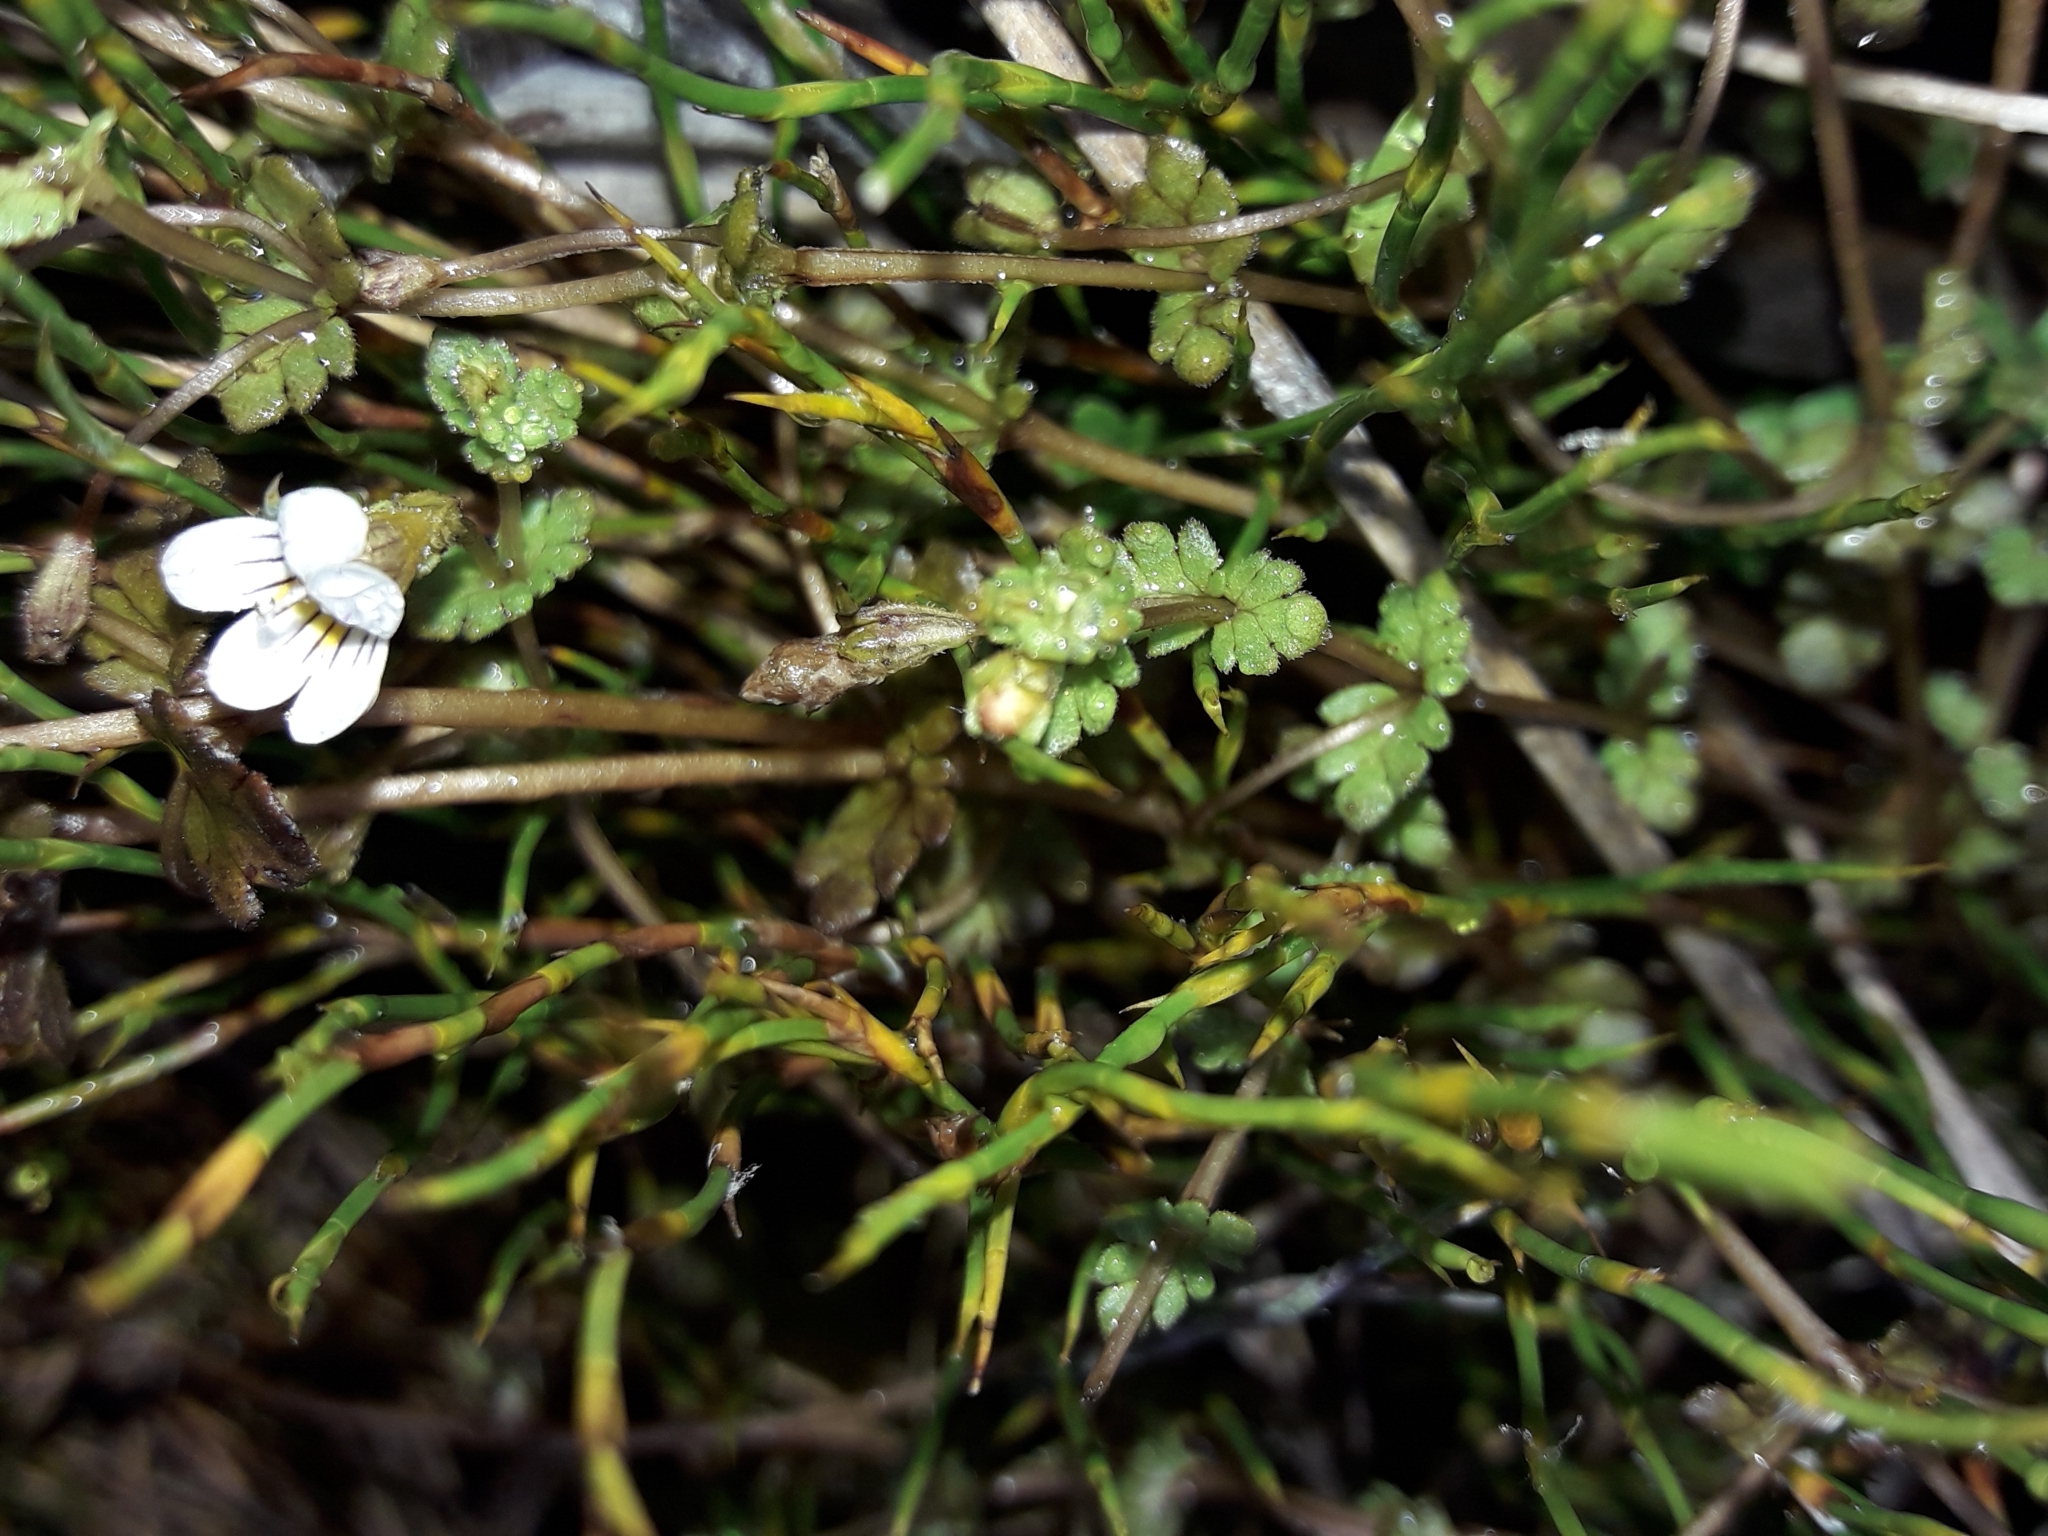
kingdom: Plantae
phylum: Tracheophyta
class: Magnoliopsida
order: Lamiales
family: Orobanchaceae
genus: Euphrasia
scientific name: Euphrasia cheesemanii
